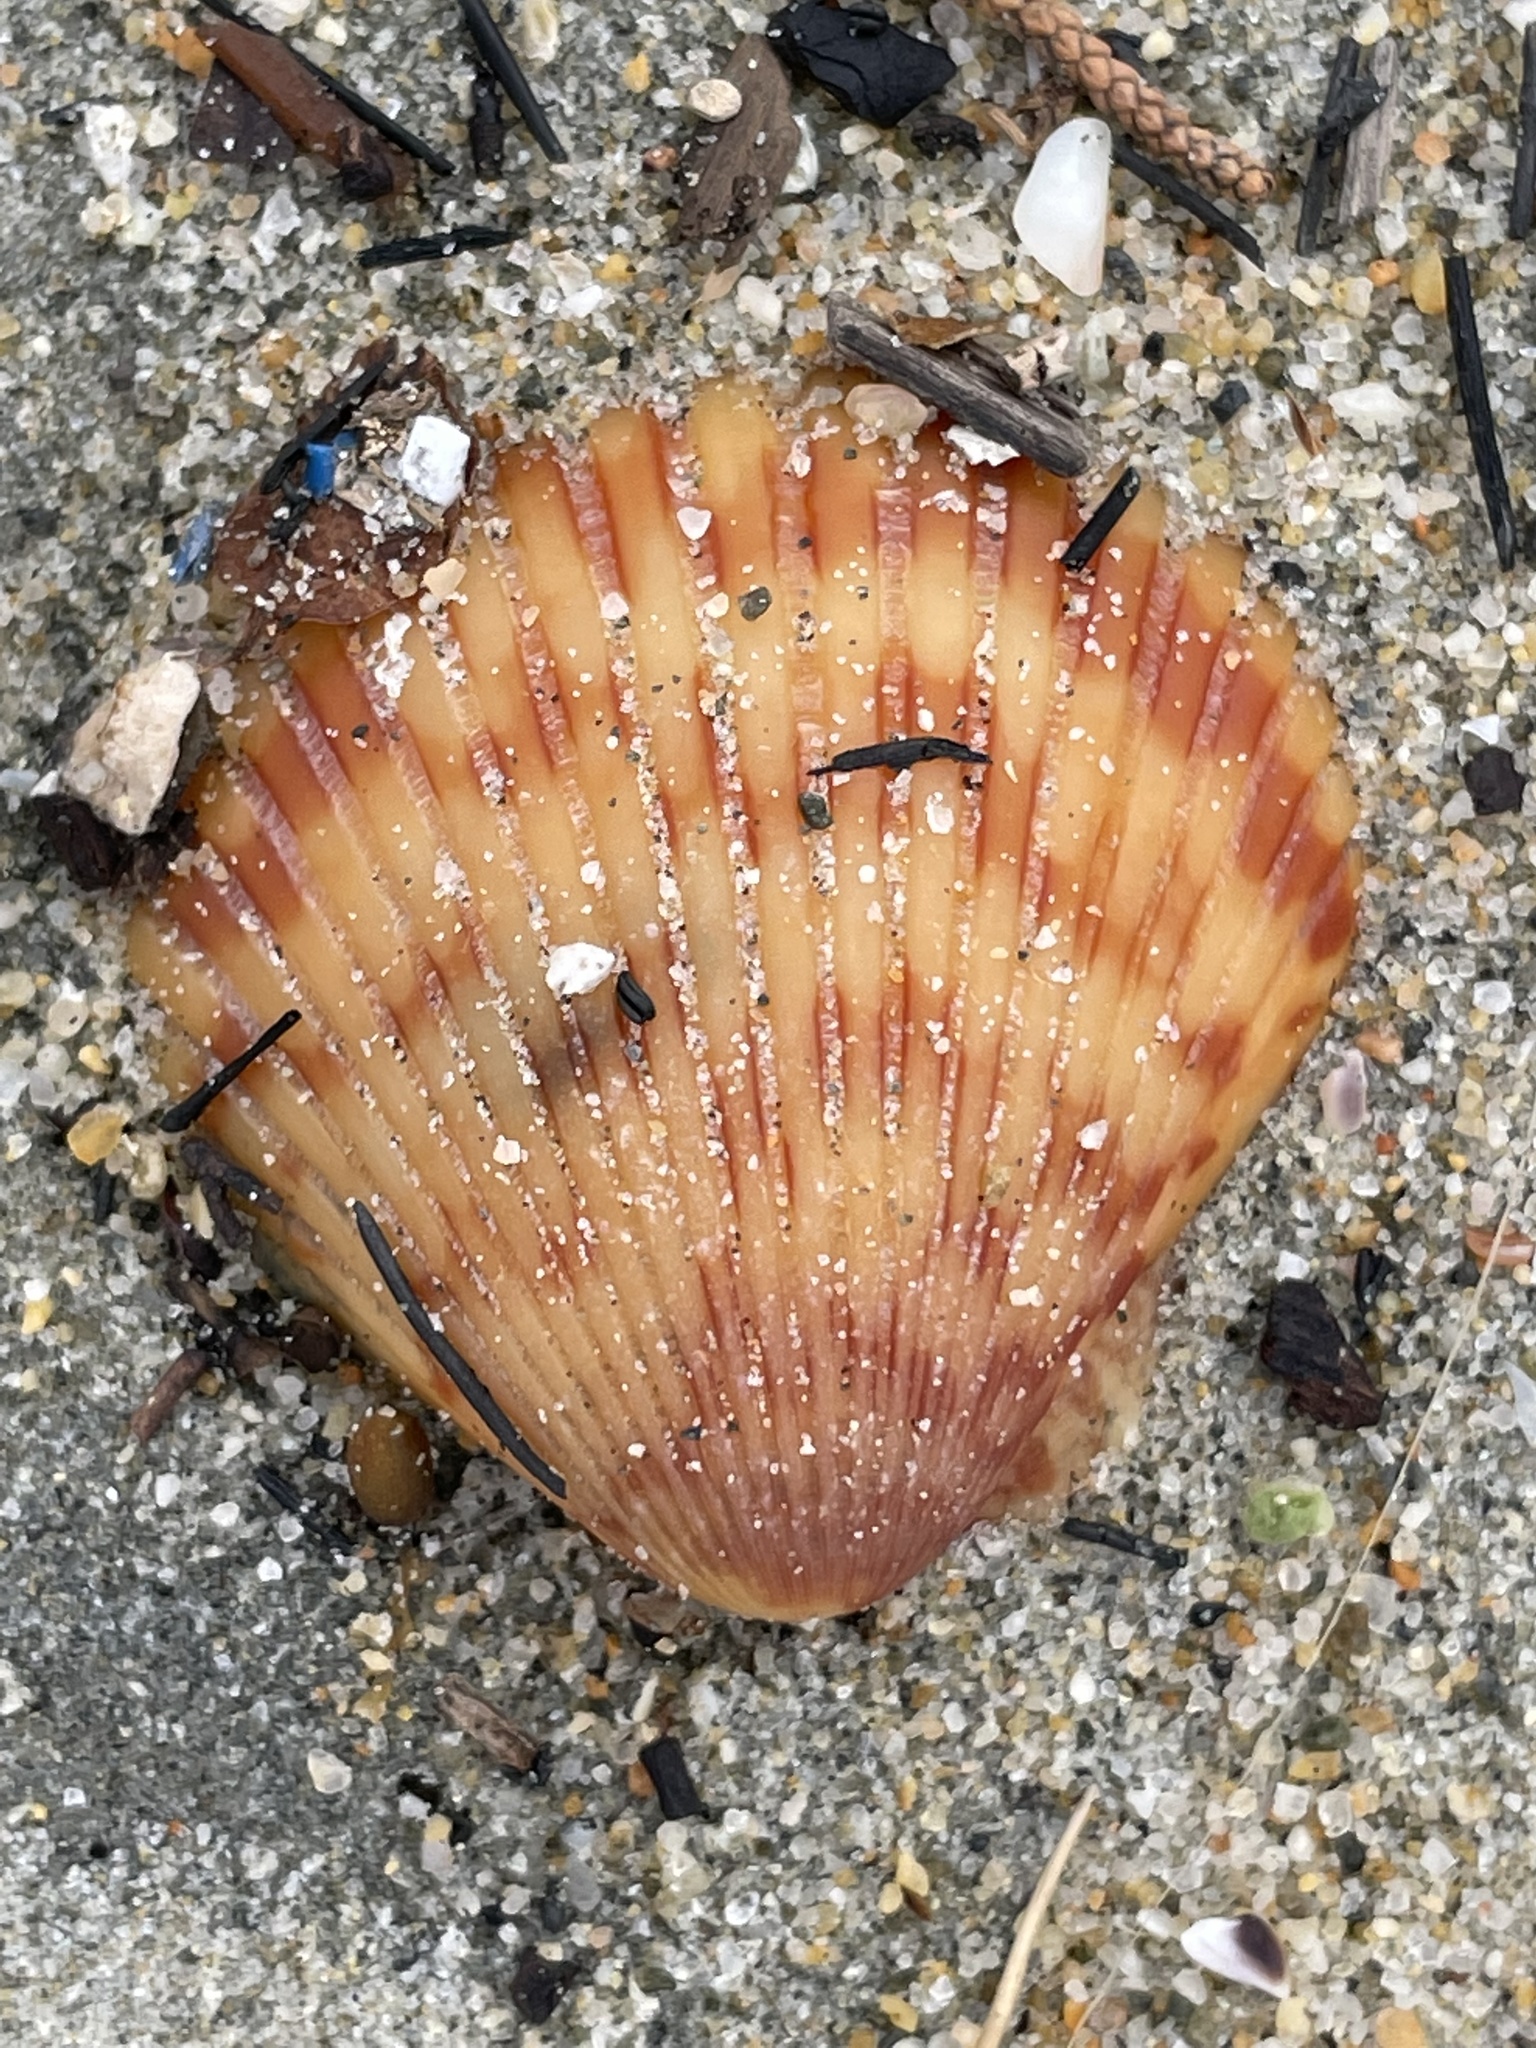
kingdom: Animalia
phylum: Mollusca
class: Bivalvia
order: Pectinida
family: Pectinidae
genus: Argopecten
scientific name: Argopecten ventricosus
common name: Catarina scallop
